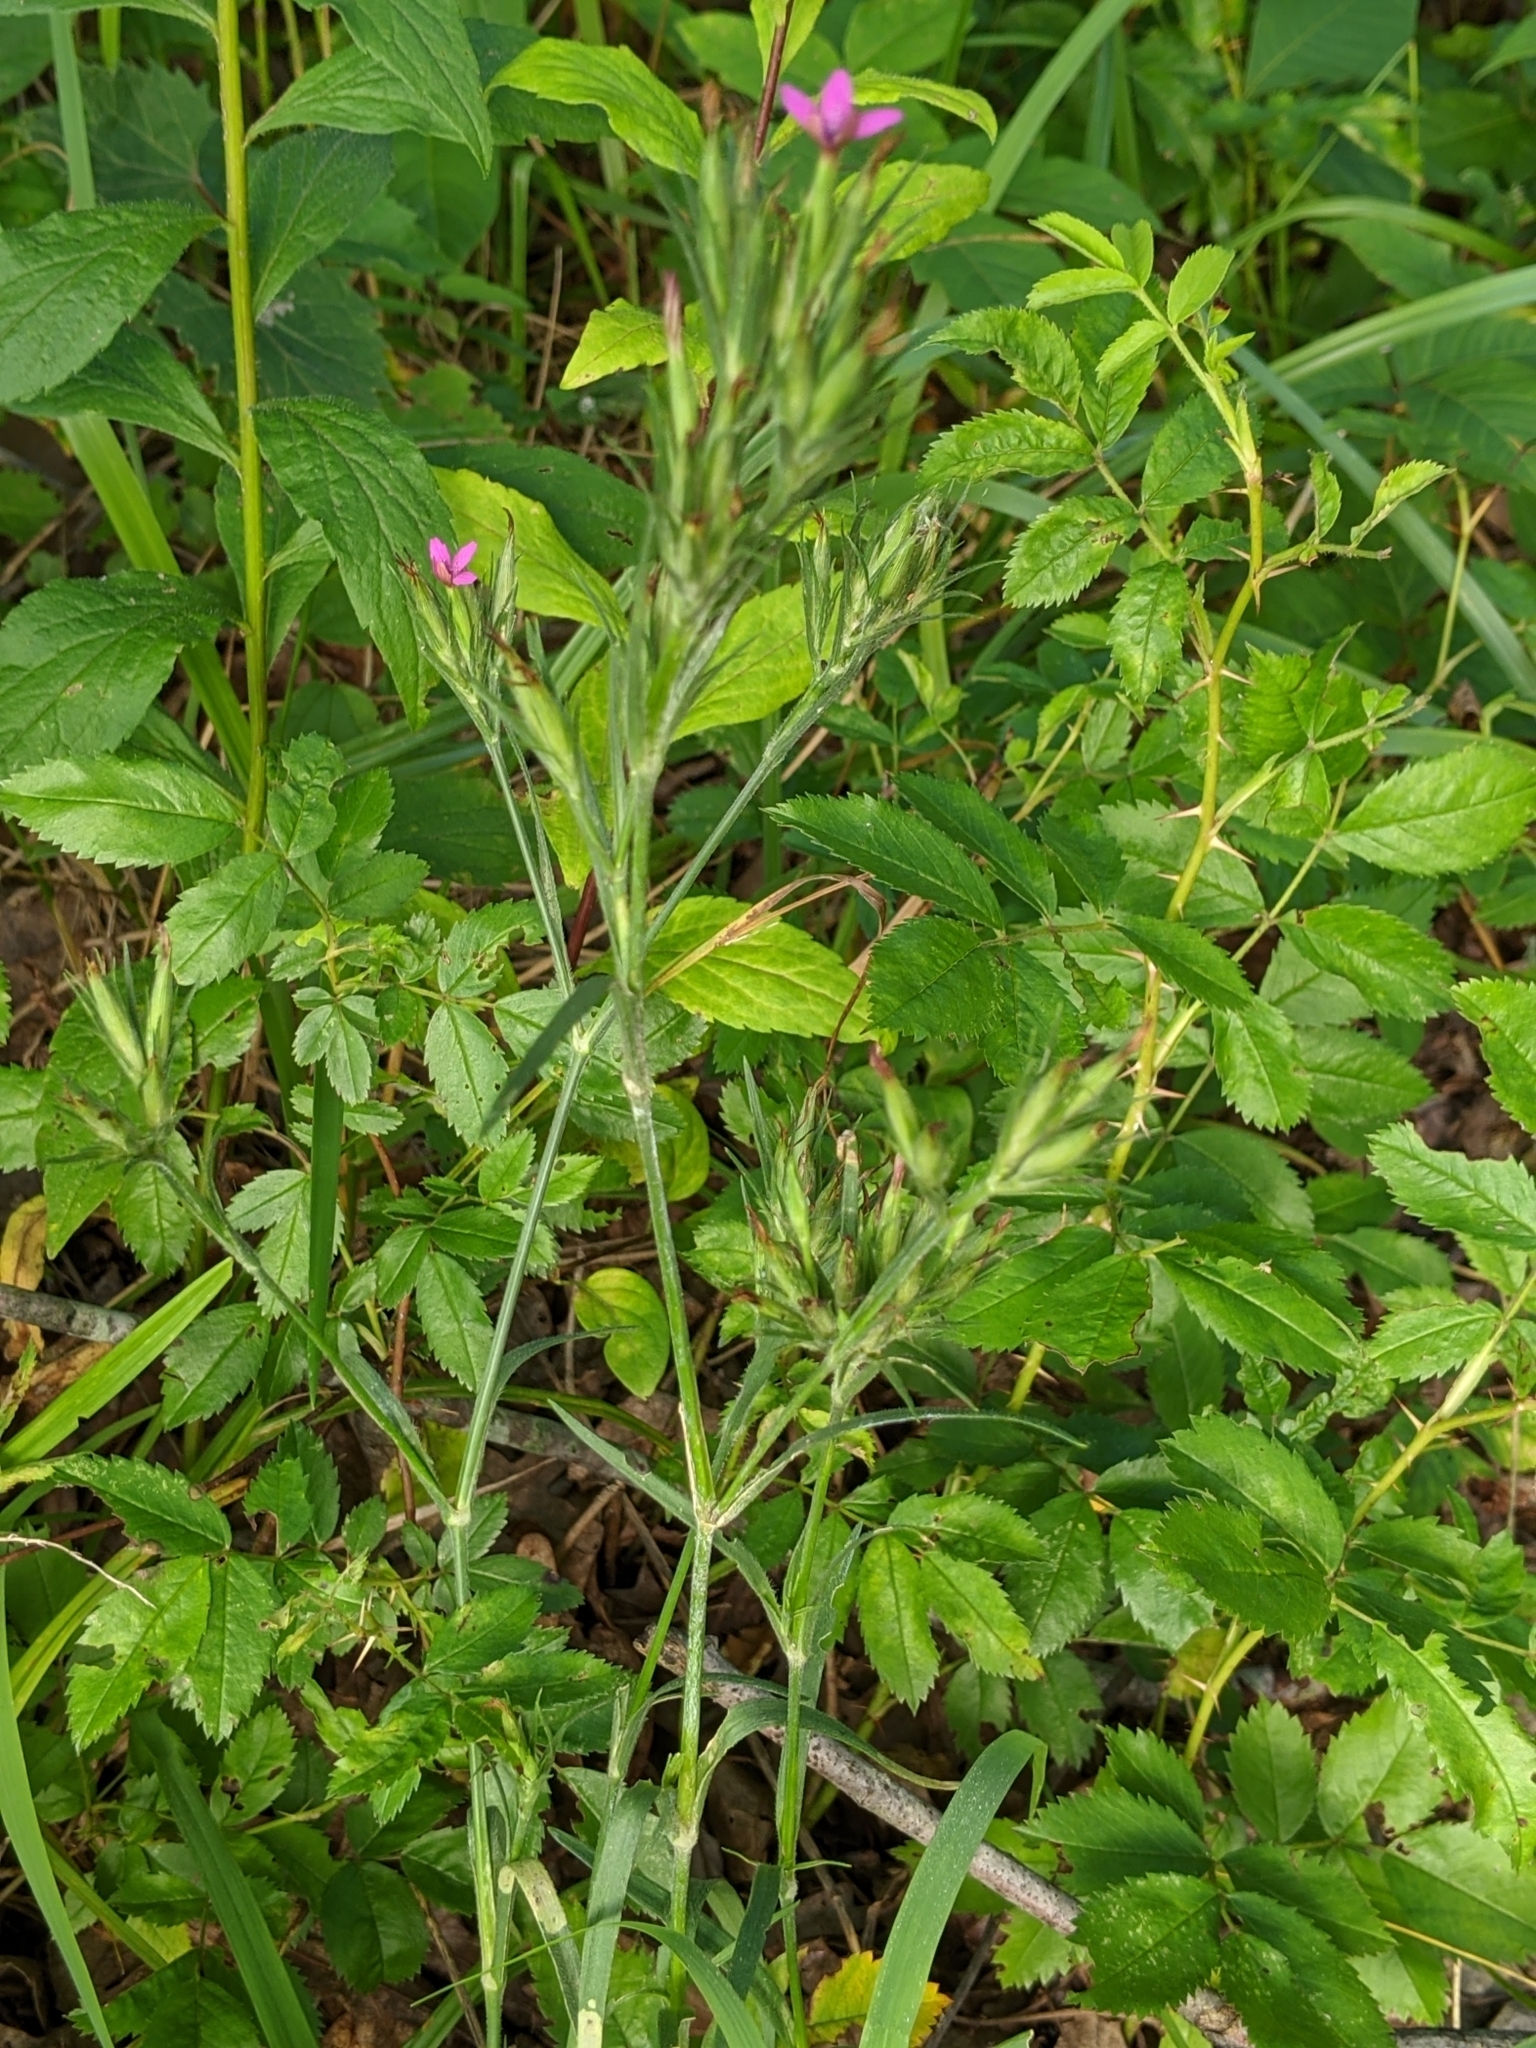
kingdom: Plantae
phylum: Tracheophyta
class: Magnoliopsida
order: Caryophyllales
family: Caryophyllaceae
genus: Dianthus
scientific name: Dianthus armeria
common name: Deptford pink
